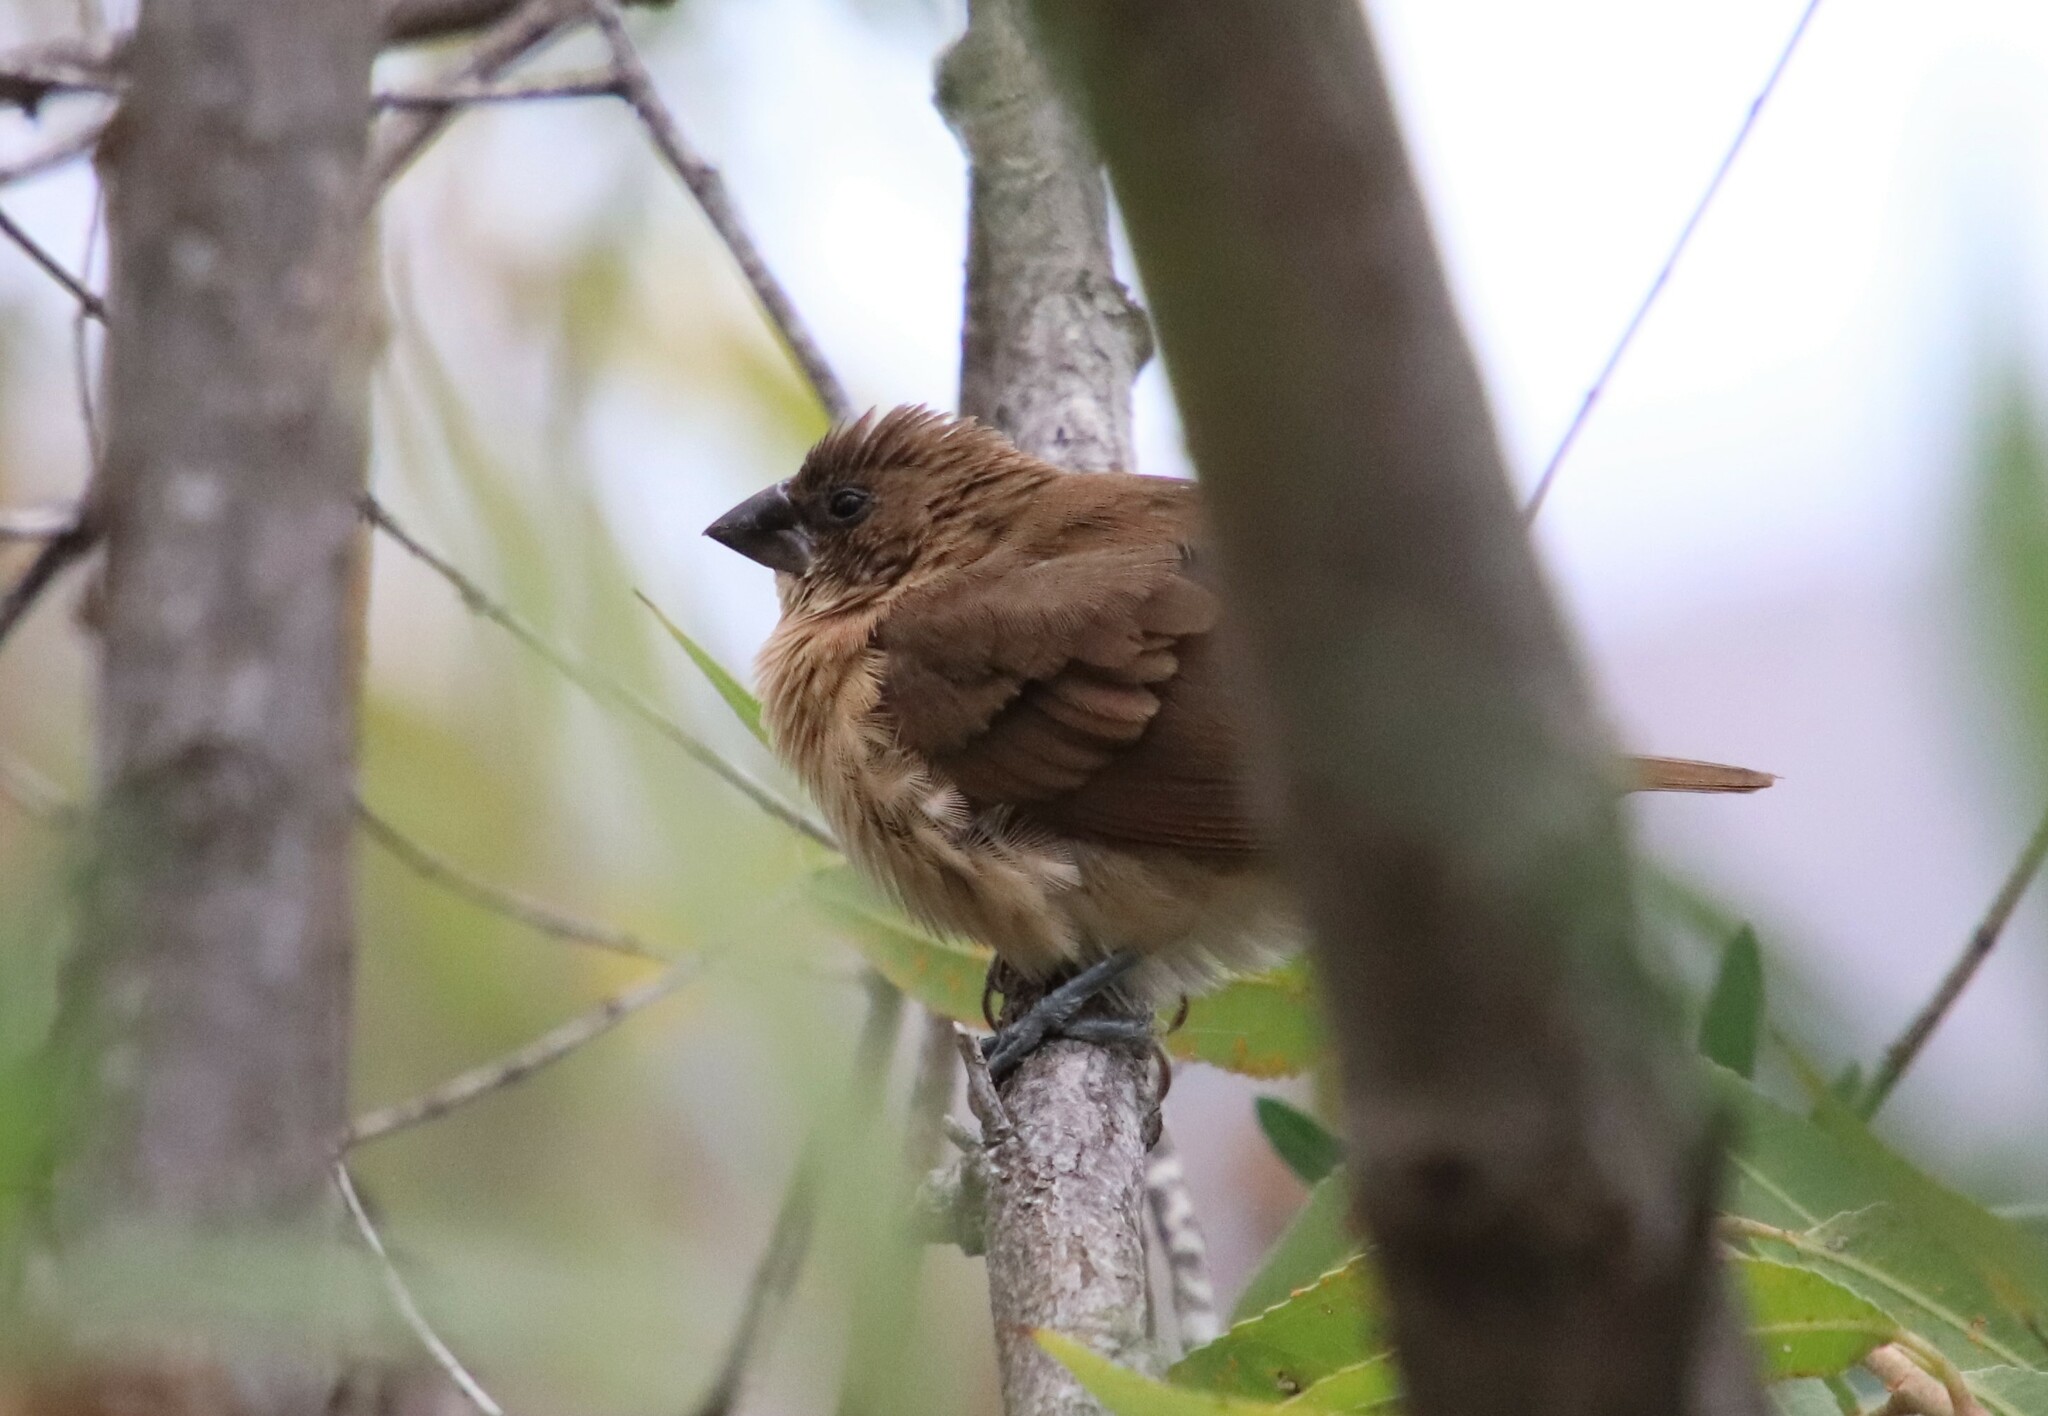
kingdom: Animalia
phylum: Chordata
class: Aves
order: Passeriformes
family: Estrildidae
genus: Lonchura
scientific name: Lonchura punctulata
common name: Scaly-breasted munia
